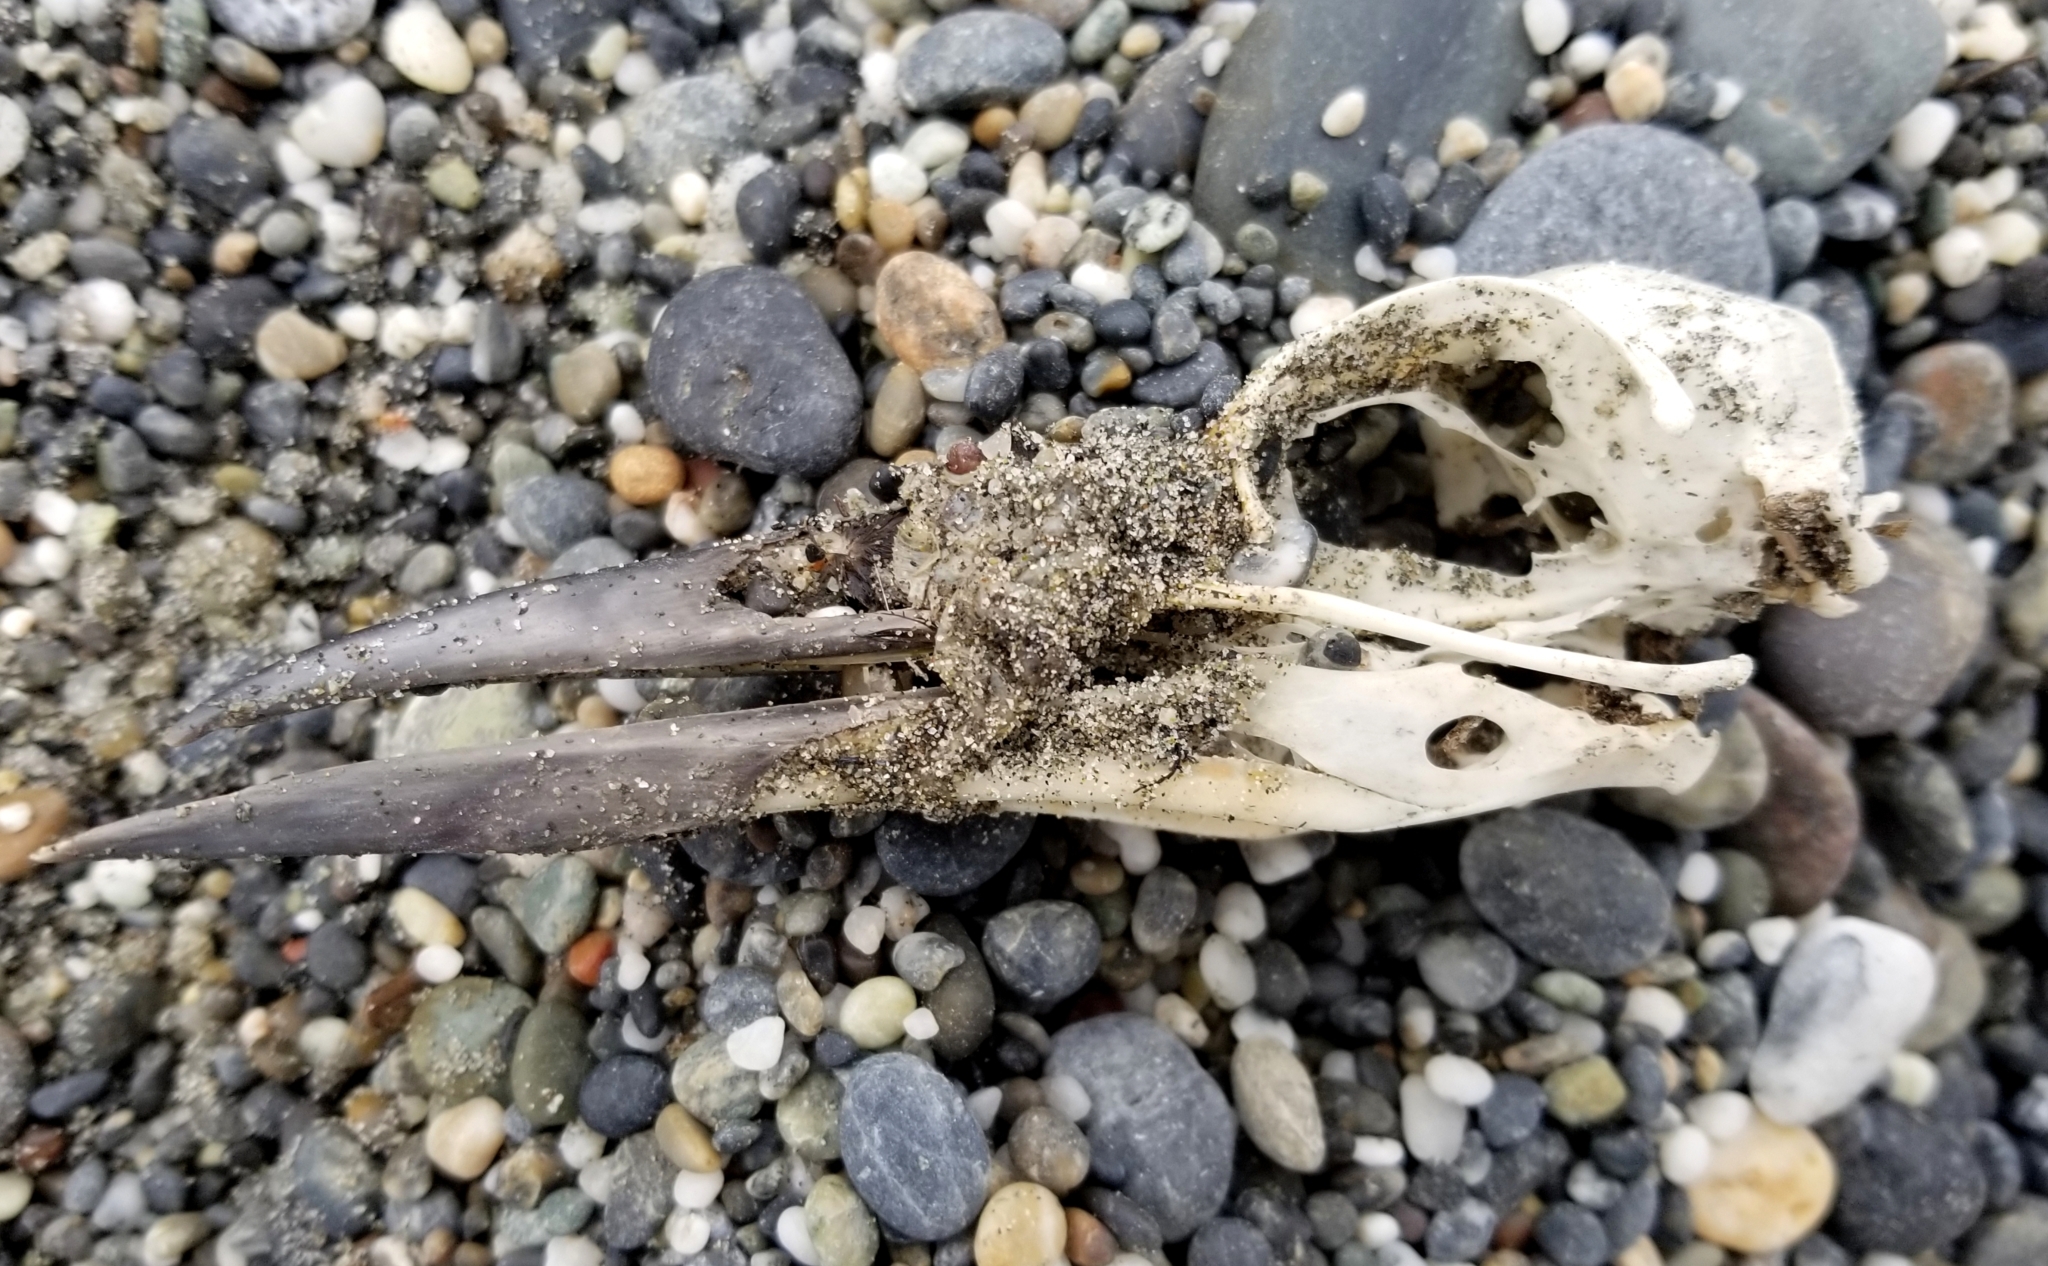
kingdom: Animalia
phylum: Chordata
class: Aves
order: Charadriiformes
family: Alcidae
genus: Uria
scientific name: Uria aalge
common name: Common murre
